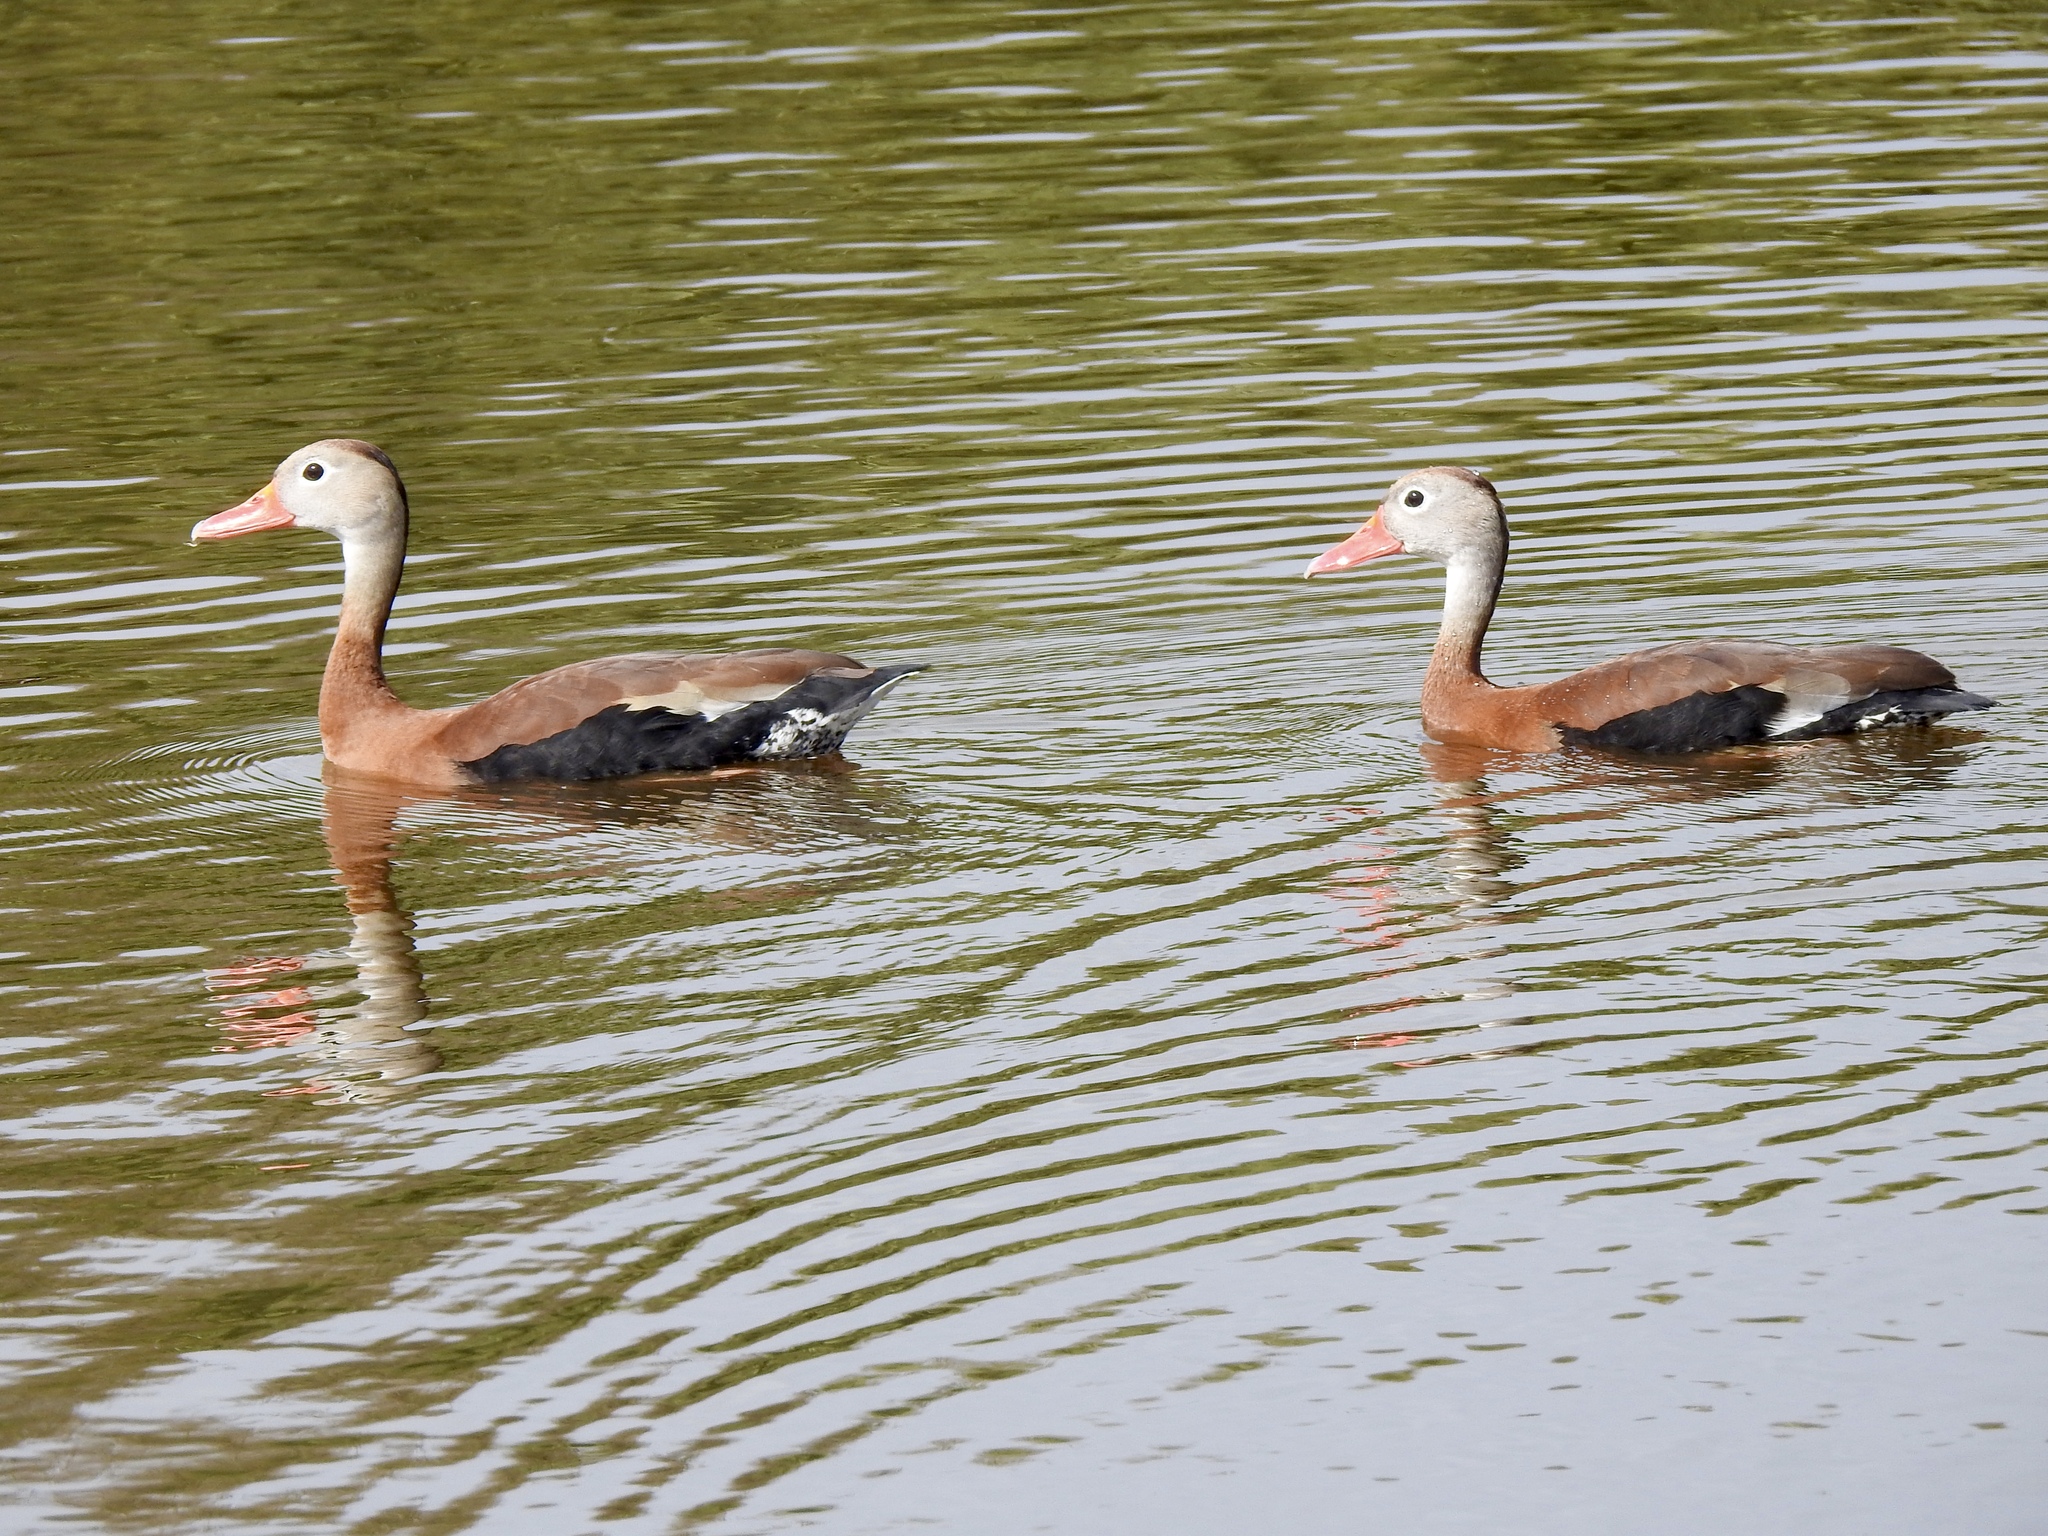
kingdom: Animalia
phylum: Chordata
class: Aves
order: Anseriformes
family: Anatidae
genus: Dendrocygna
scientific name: Dendrocygna autumnalis
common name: Black-bellied whistling duck
